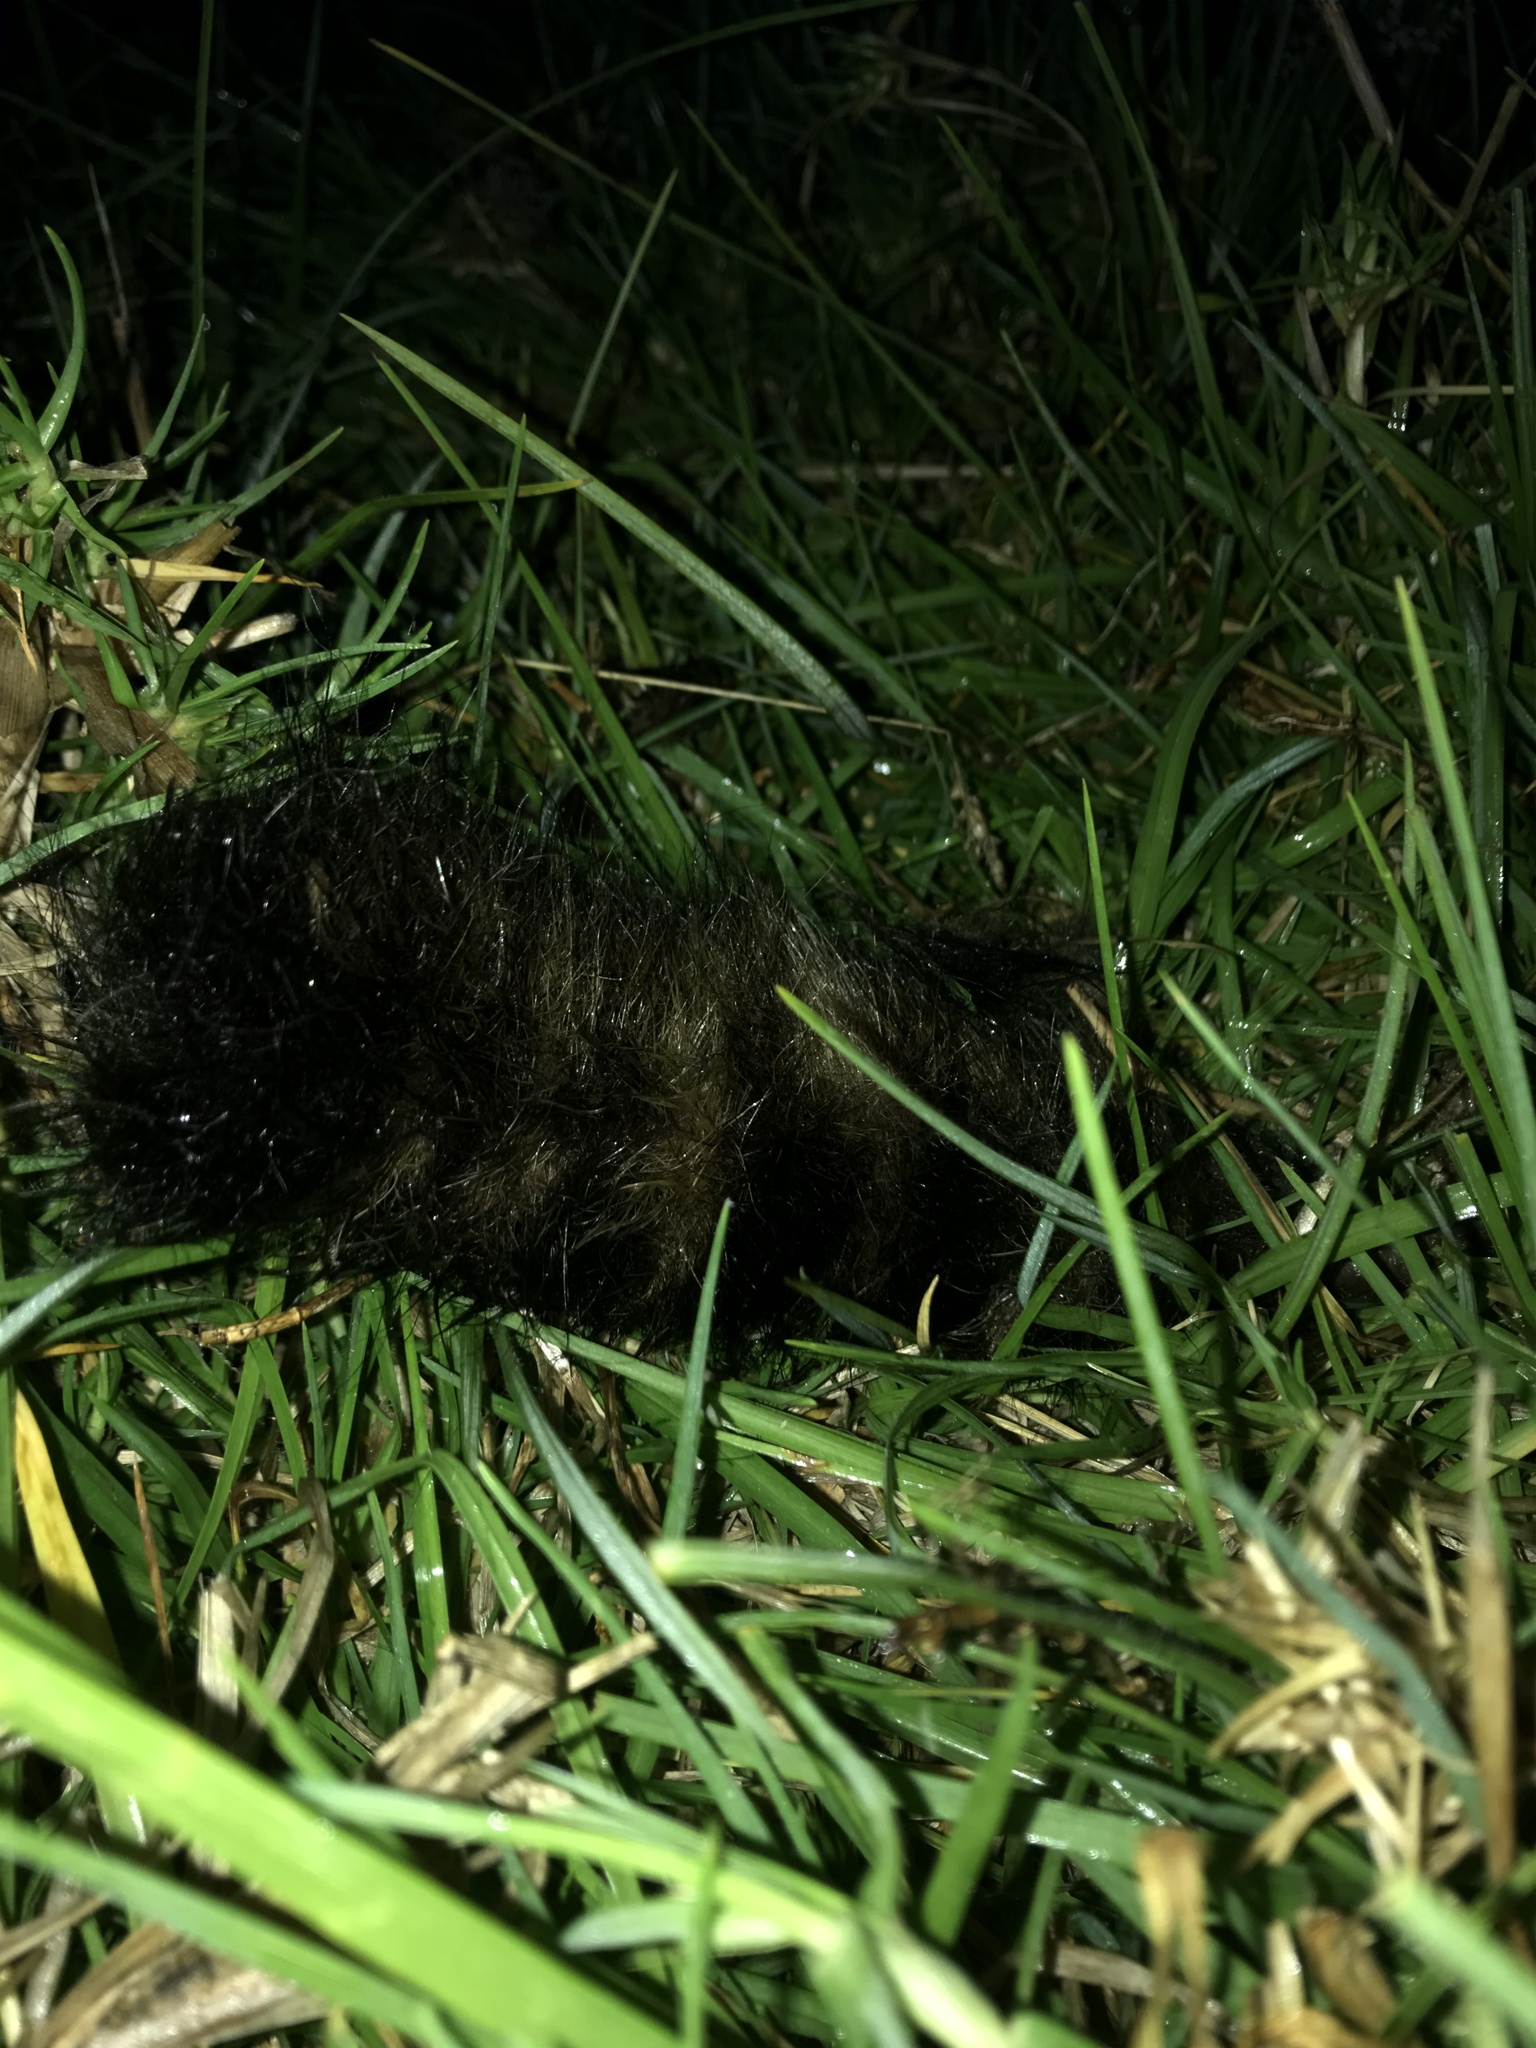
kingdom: Animalia
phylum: Chordata
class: Mammalia
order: Carnivora
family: Procyonidae
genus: Nasua
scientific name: Nasua olivacea
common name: Mountain coati
